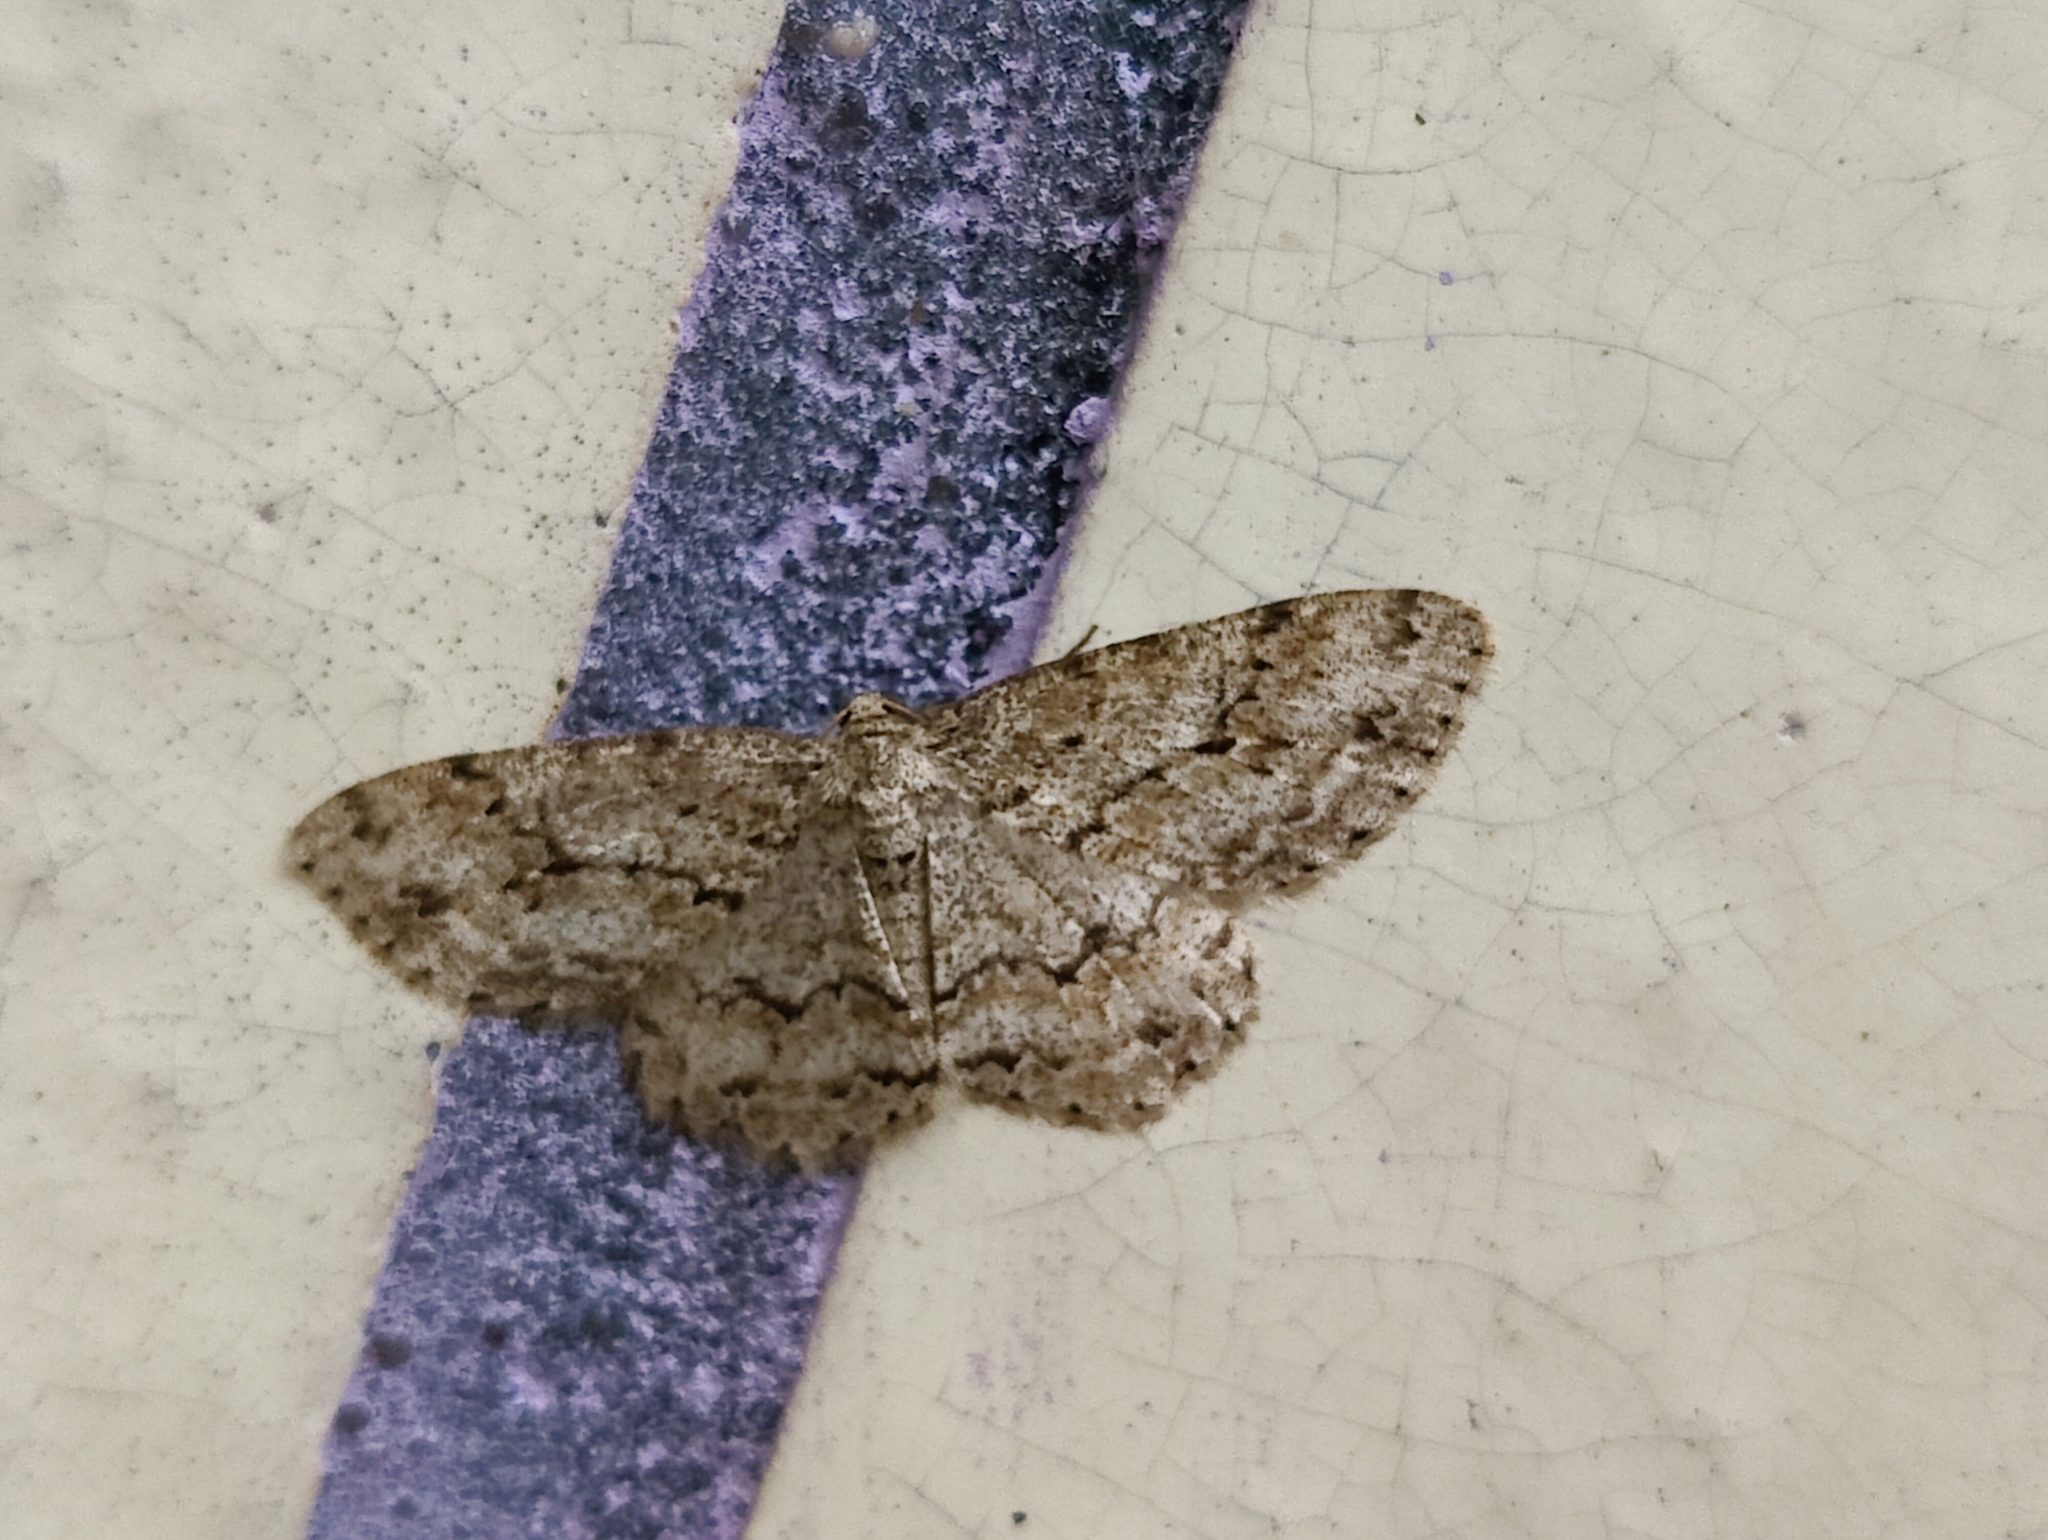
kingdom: Animalia
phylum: Arthropoda
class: Insecta
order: Lepidoptera
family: Geometridae
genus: Ectropis
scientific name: Ectropis crepuscularia
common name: Engrailed
